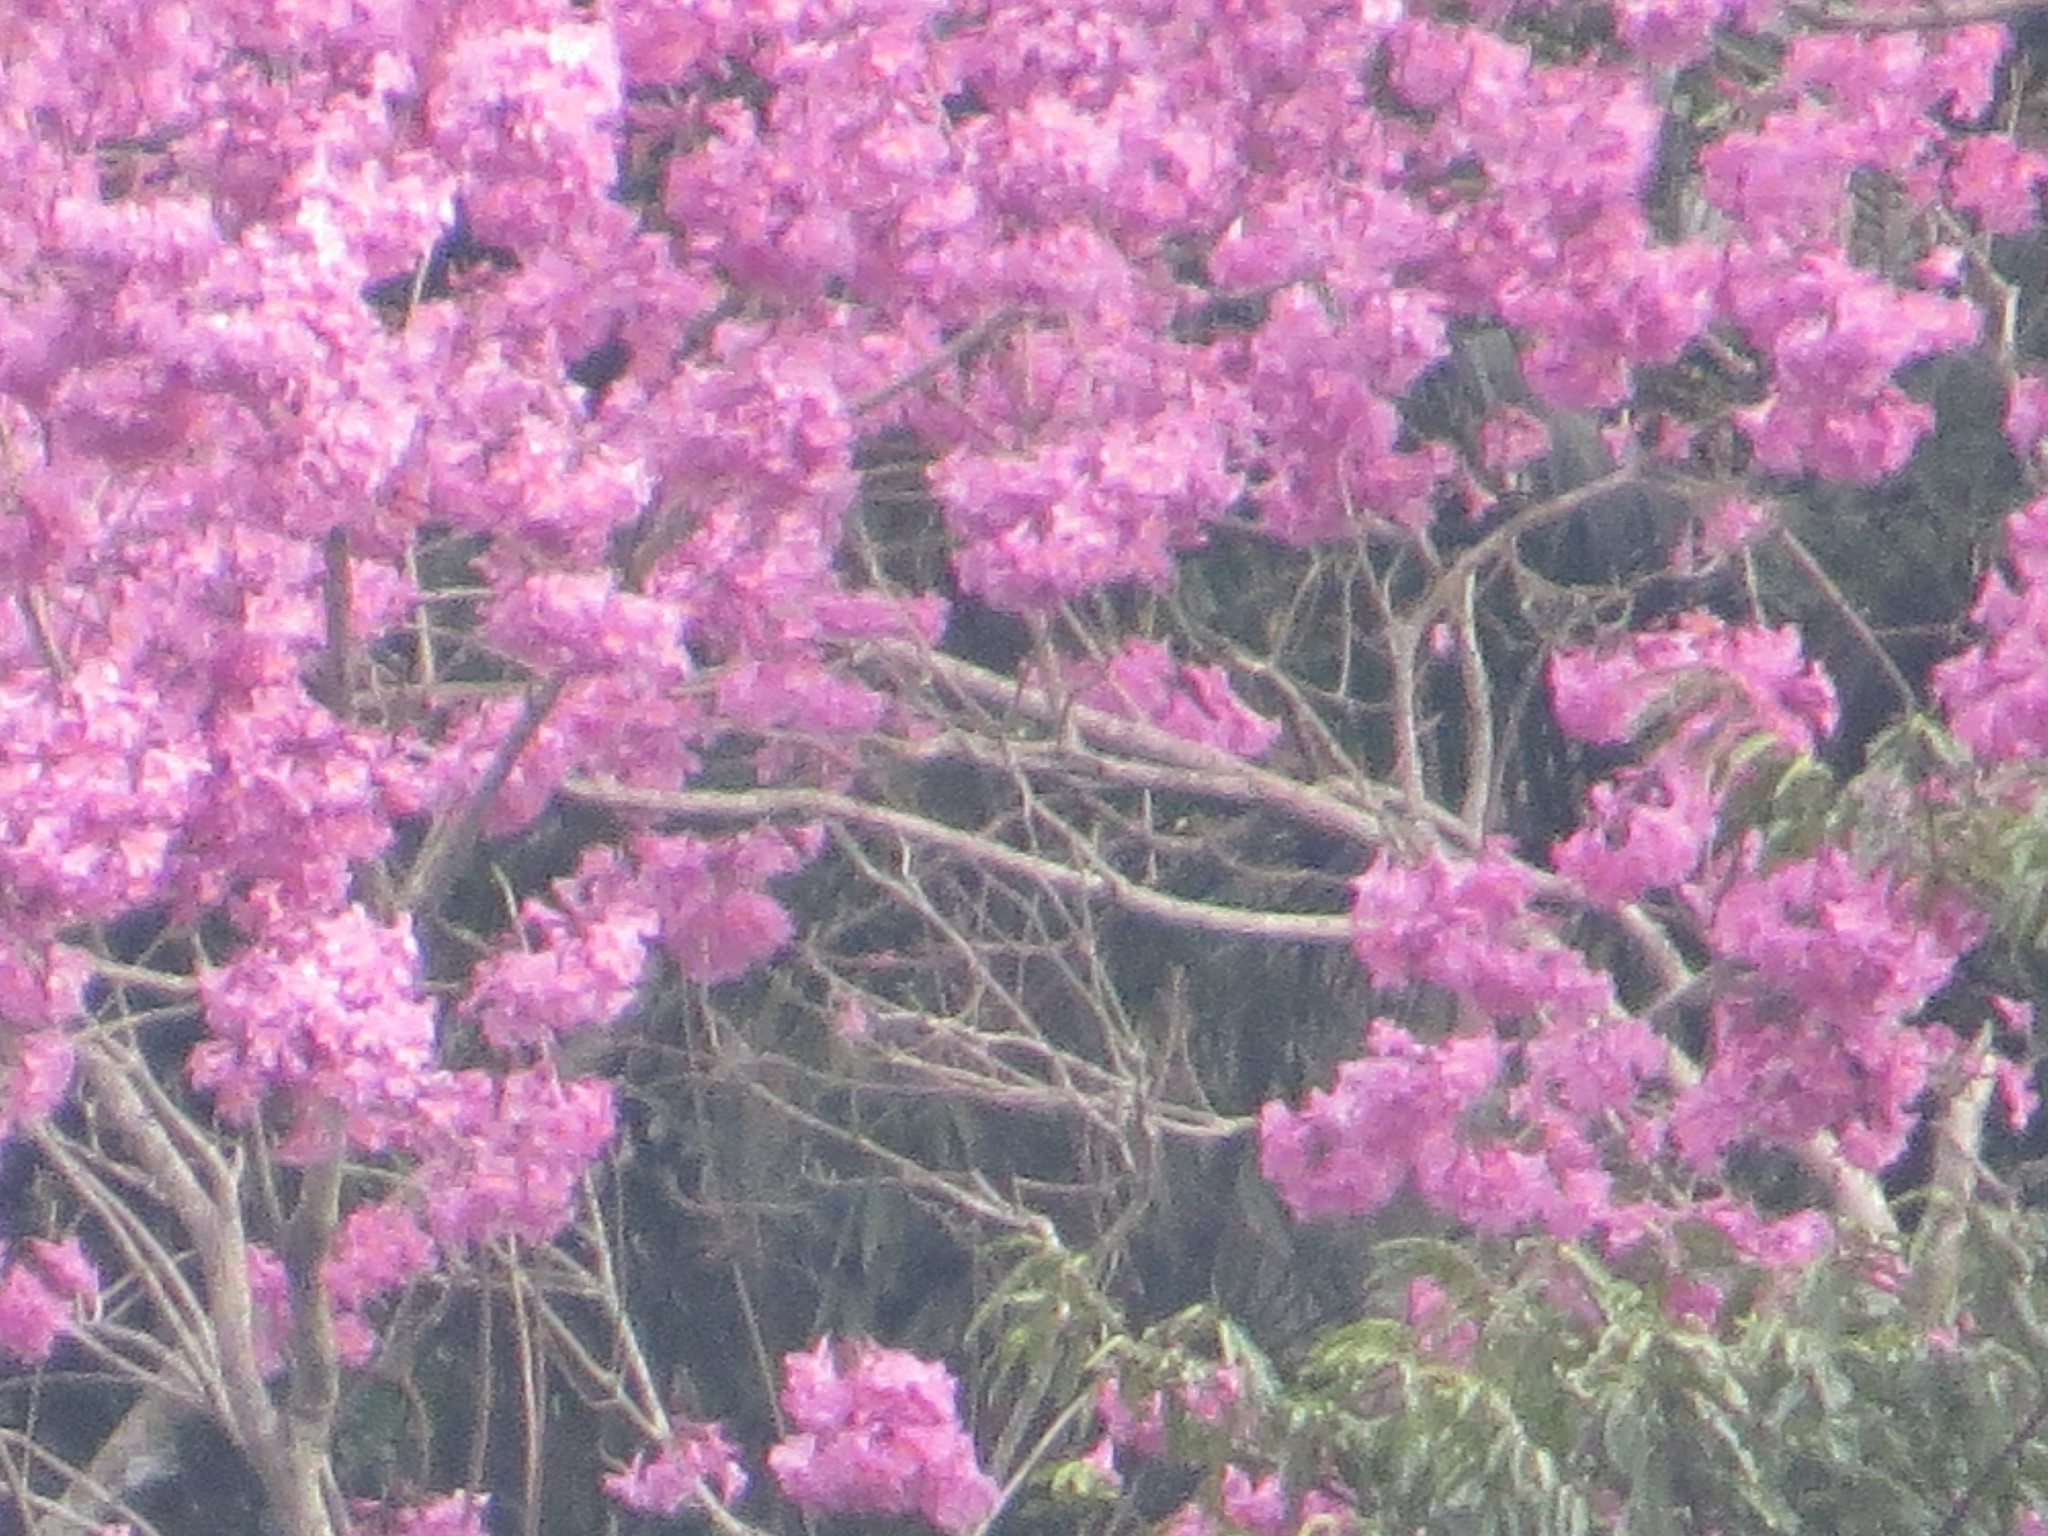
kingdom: Plantae
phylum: Tracheophyta
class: Magnoliopsida
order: Lamiales
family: Bignoniaceae
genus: Handroanthus
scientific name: Handroanthus heptaphyllus
